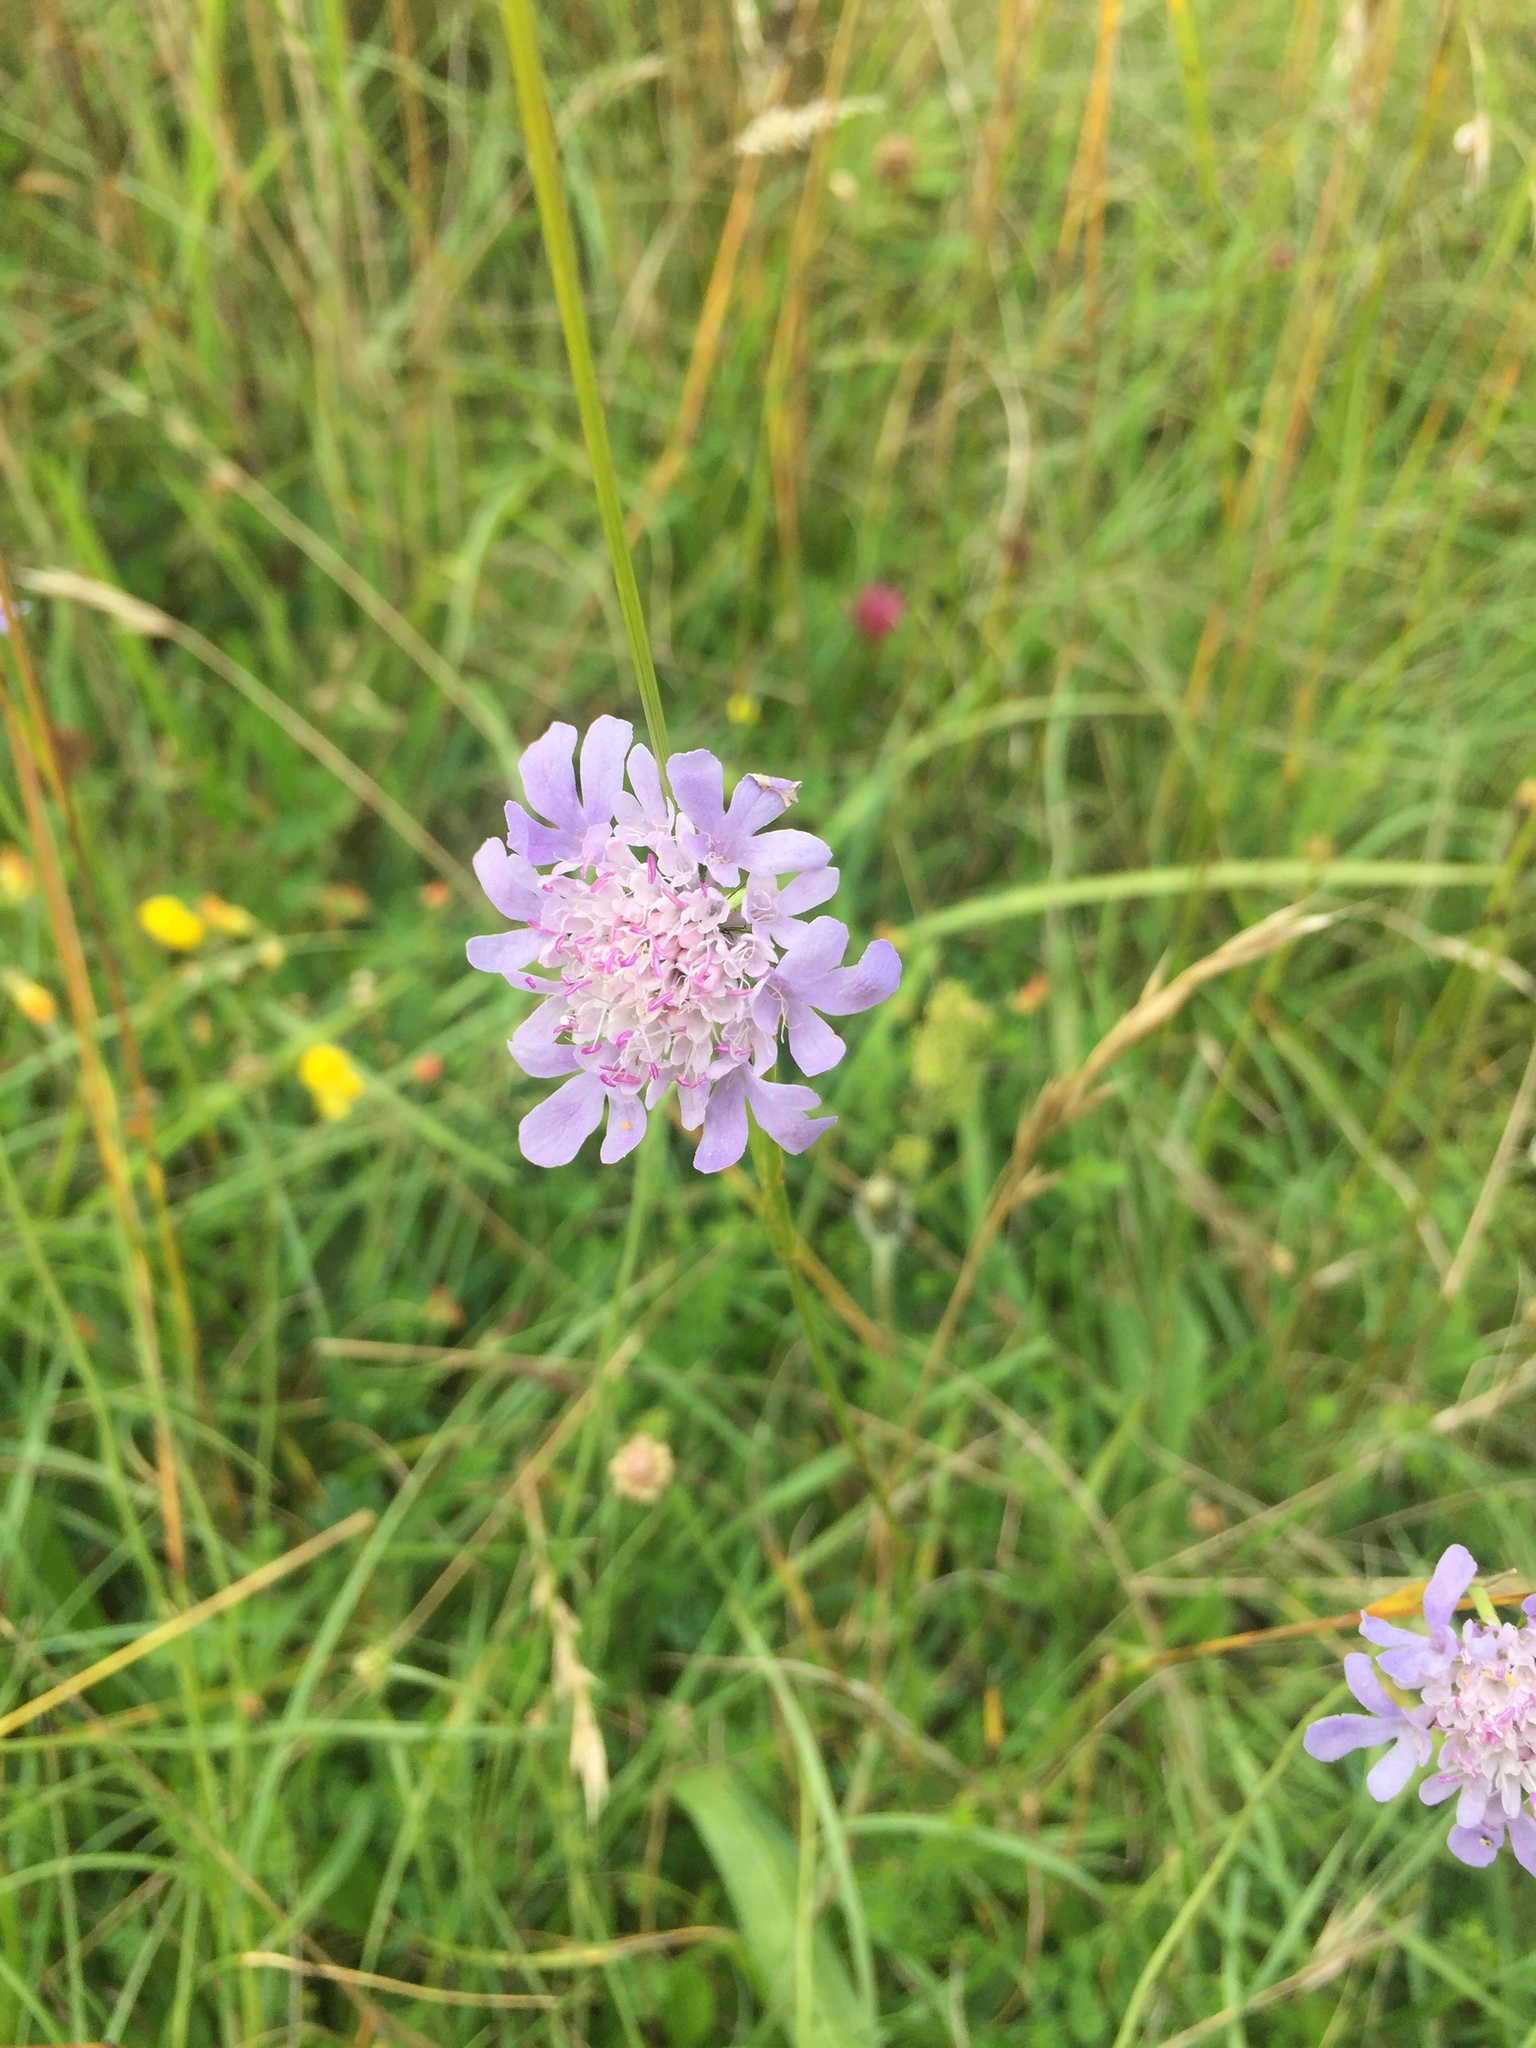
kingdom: Plantae
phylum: Tracheophyta
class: Magnoliopsida
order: Dipsacales
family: Caprifoliaceae
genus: Knautia
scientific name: Knautia arvensis
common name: Field scabiosa
